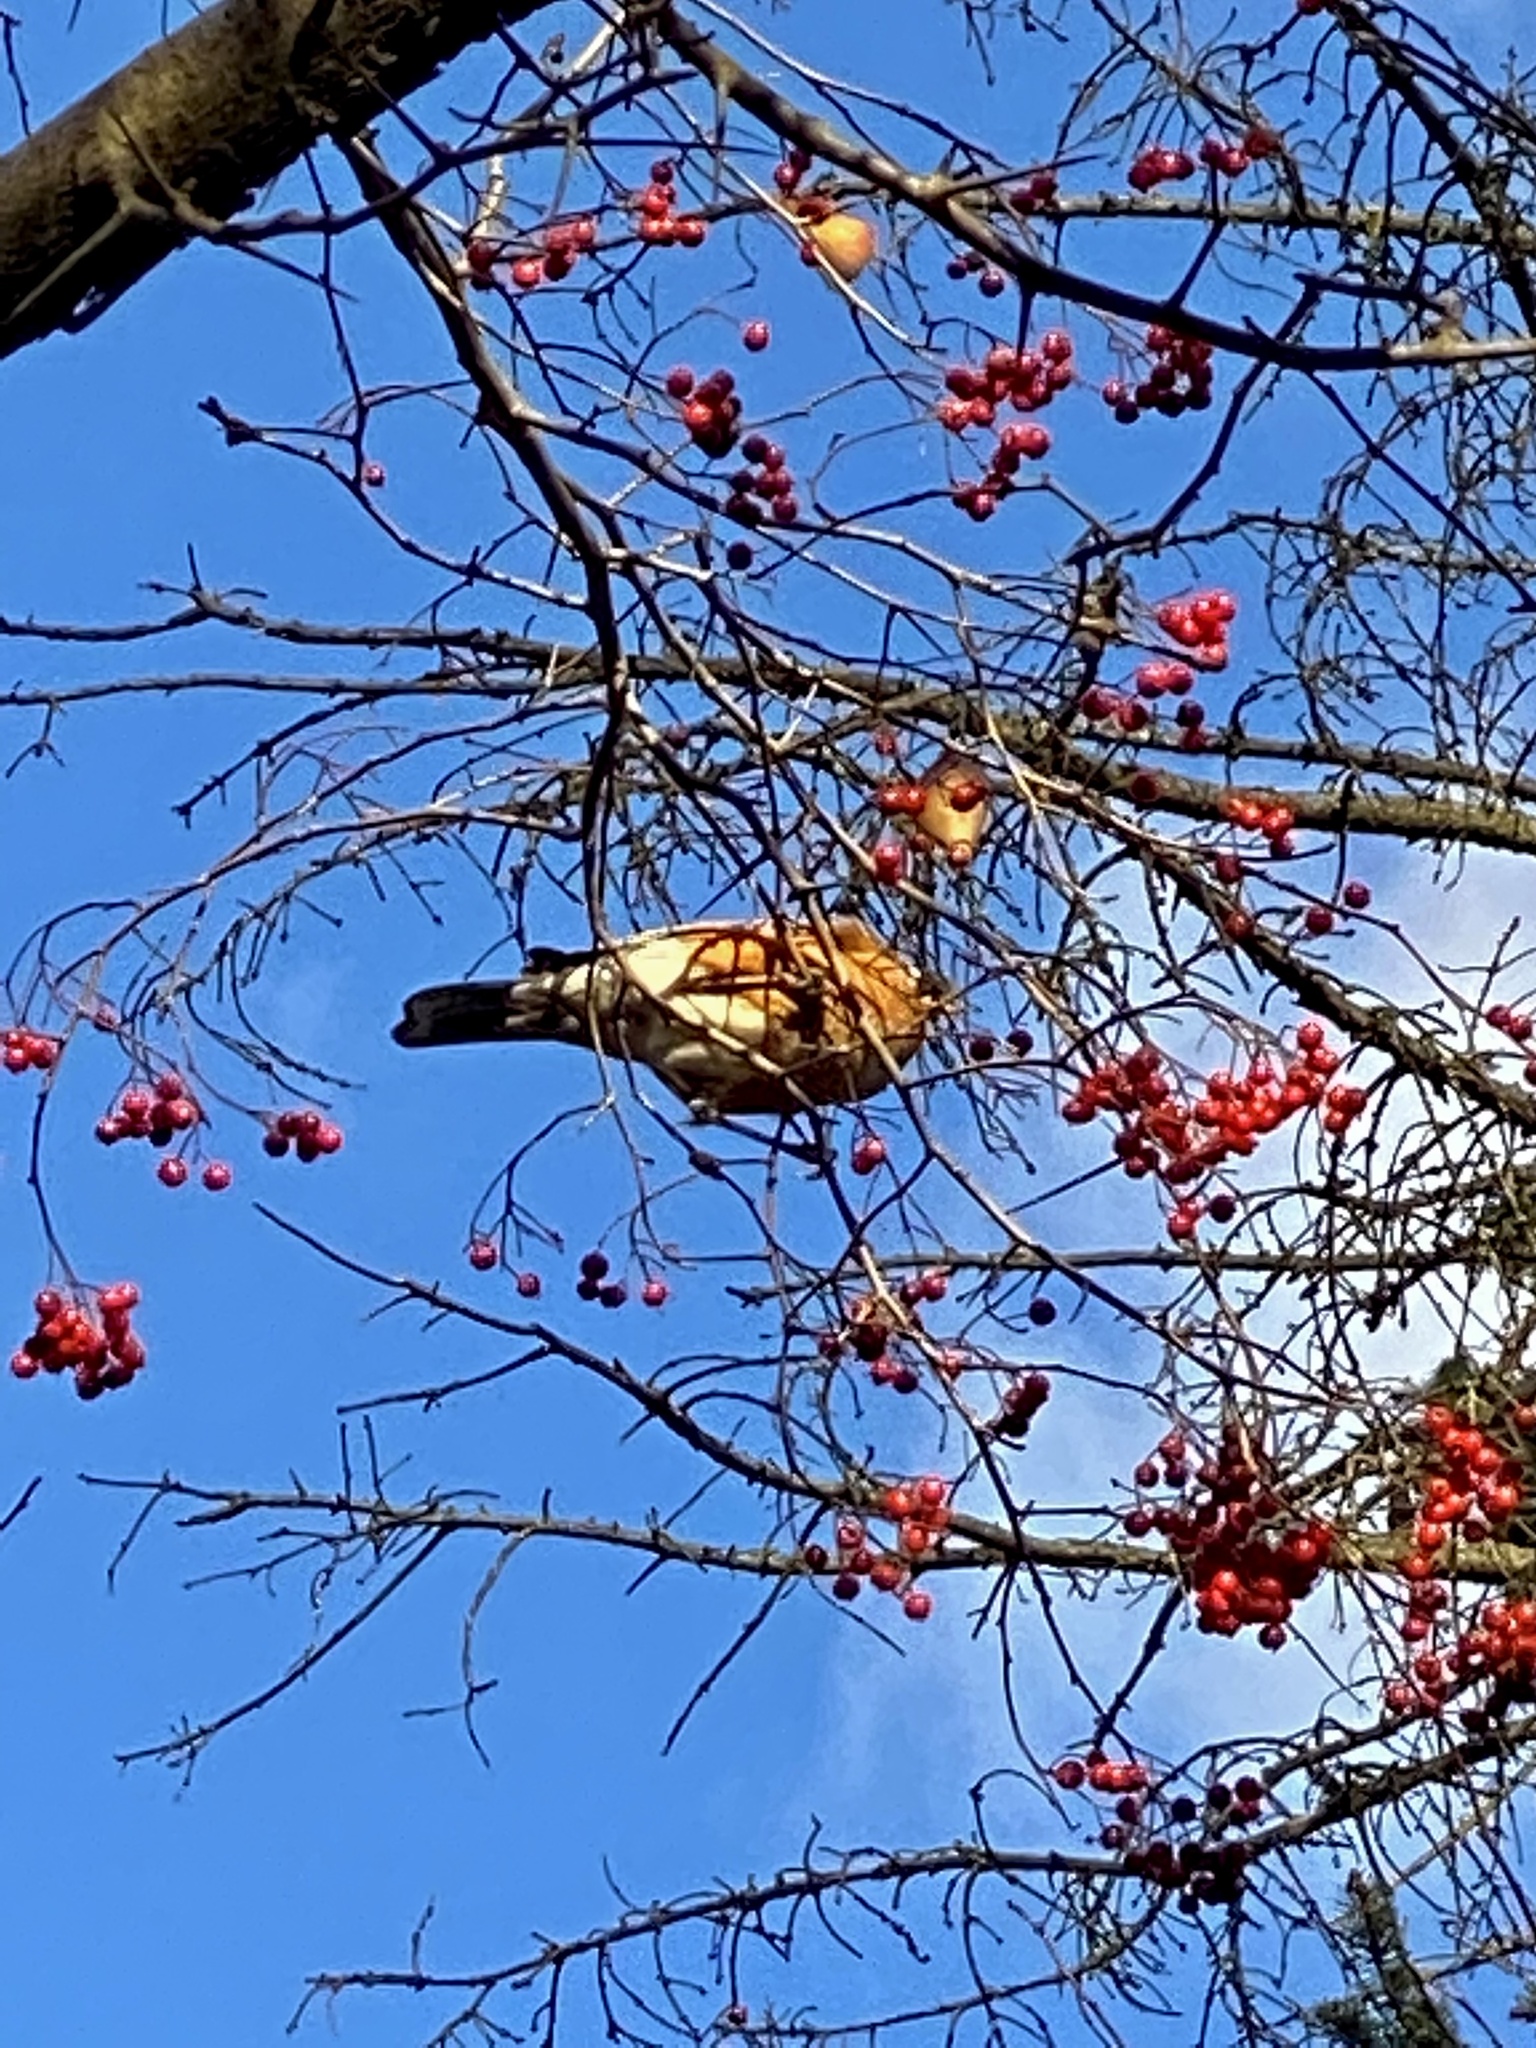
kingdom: Animalia
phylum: Chordata
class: Aves
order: Passeriformes
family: Turdidae
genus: Turdus
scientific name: Turdus migratorius
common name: American robin
